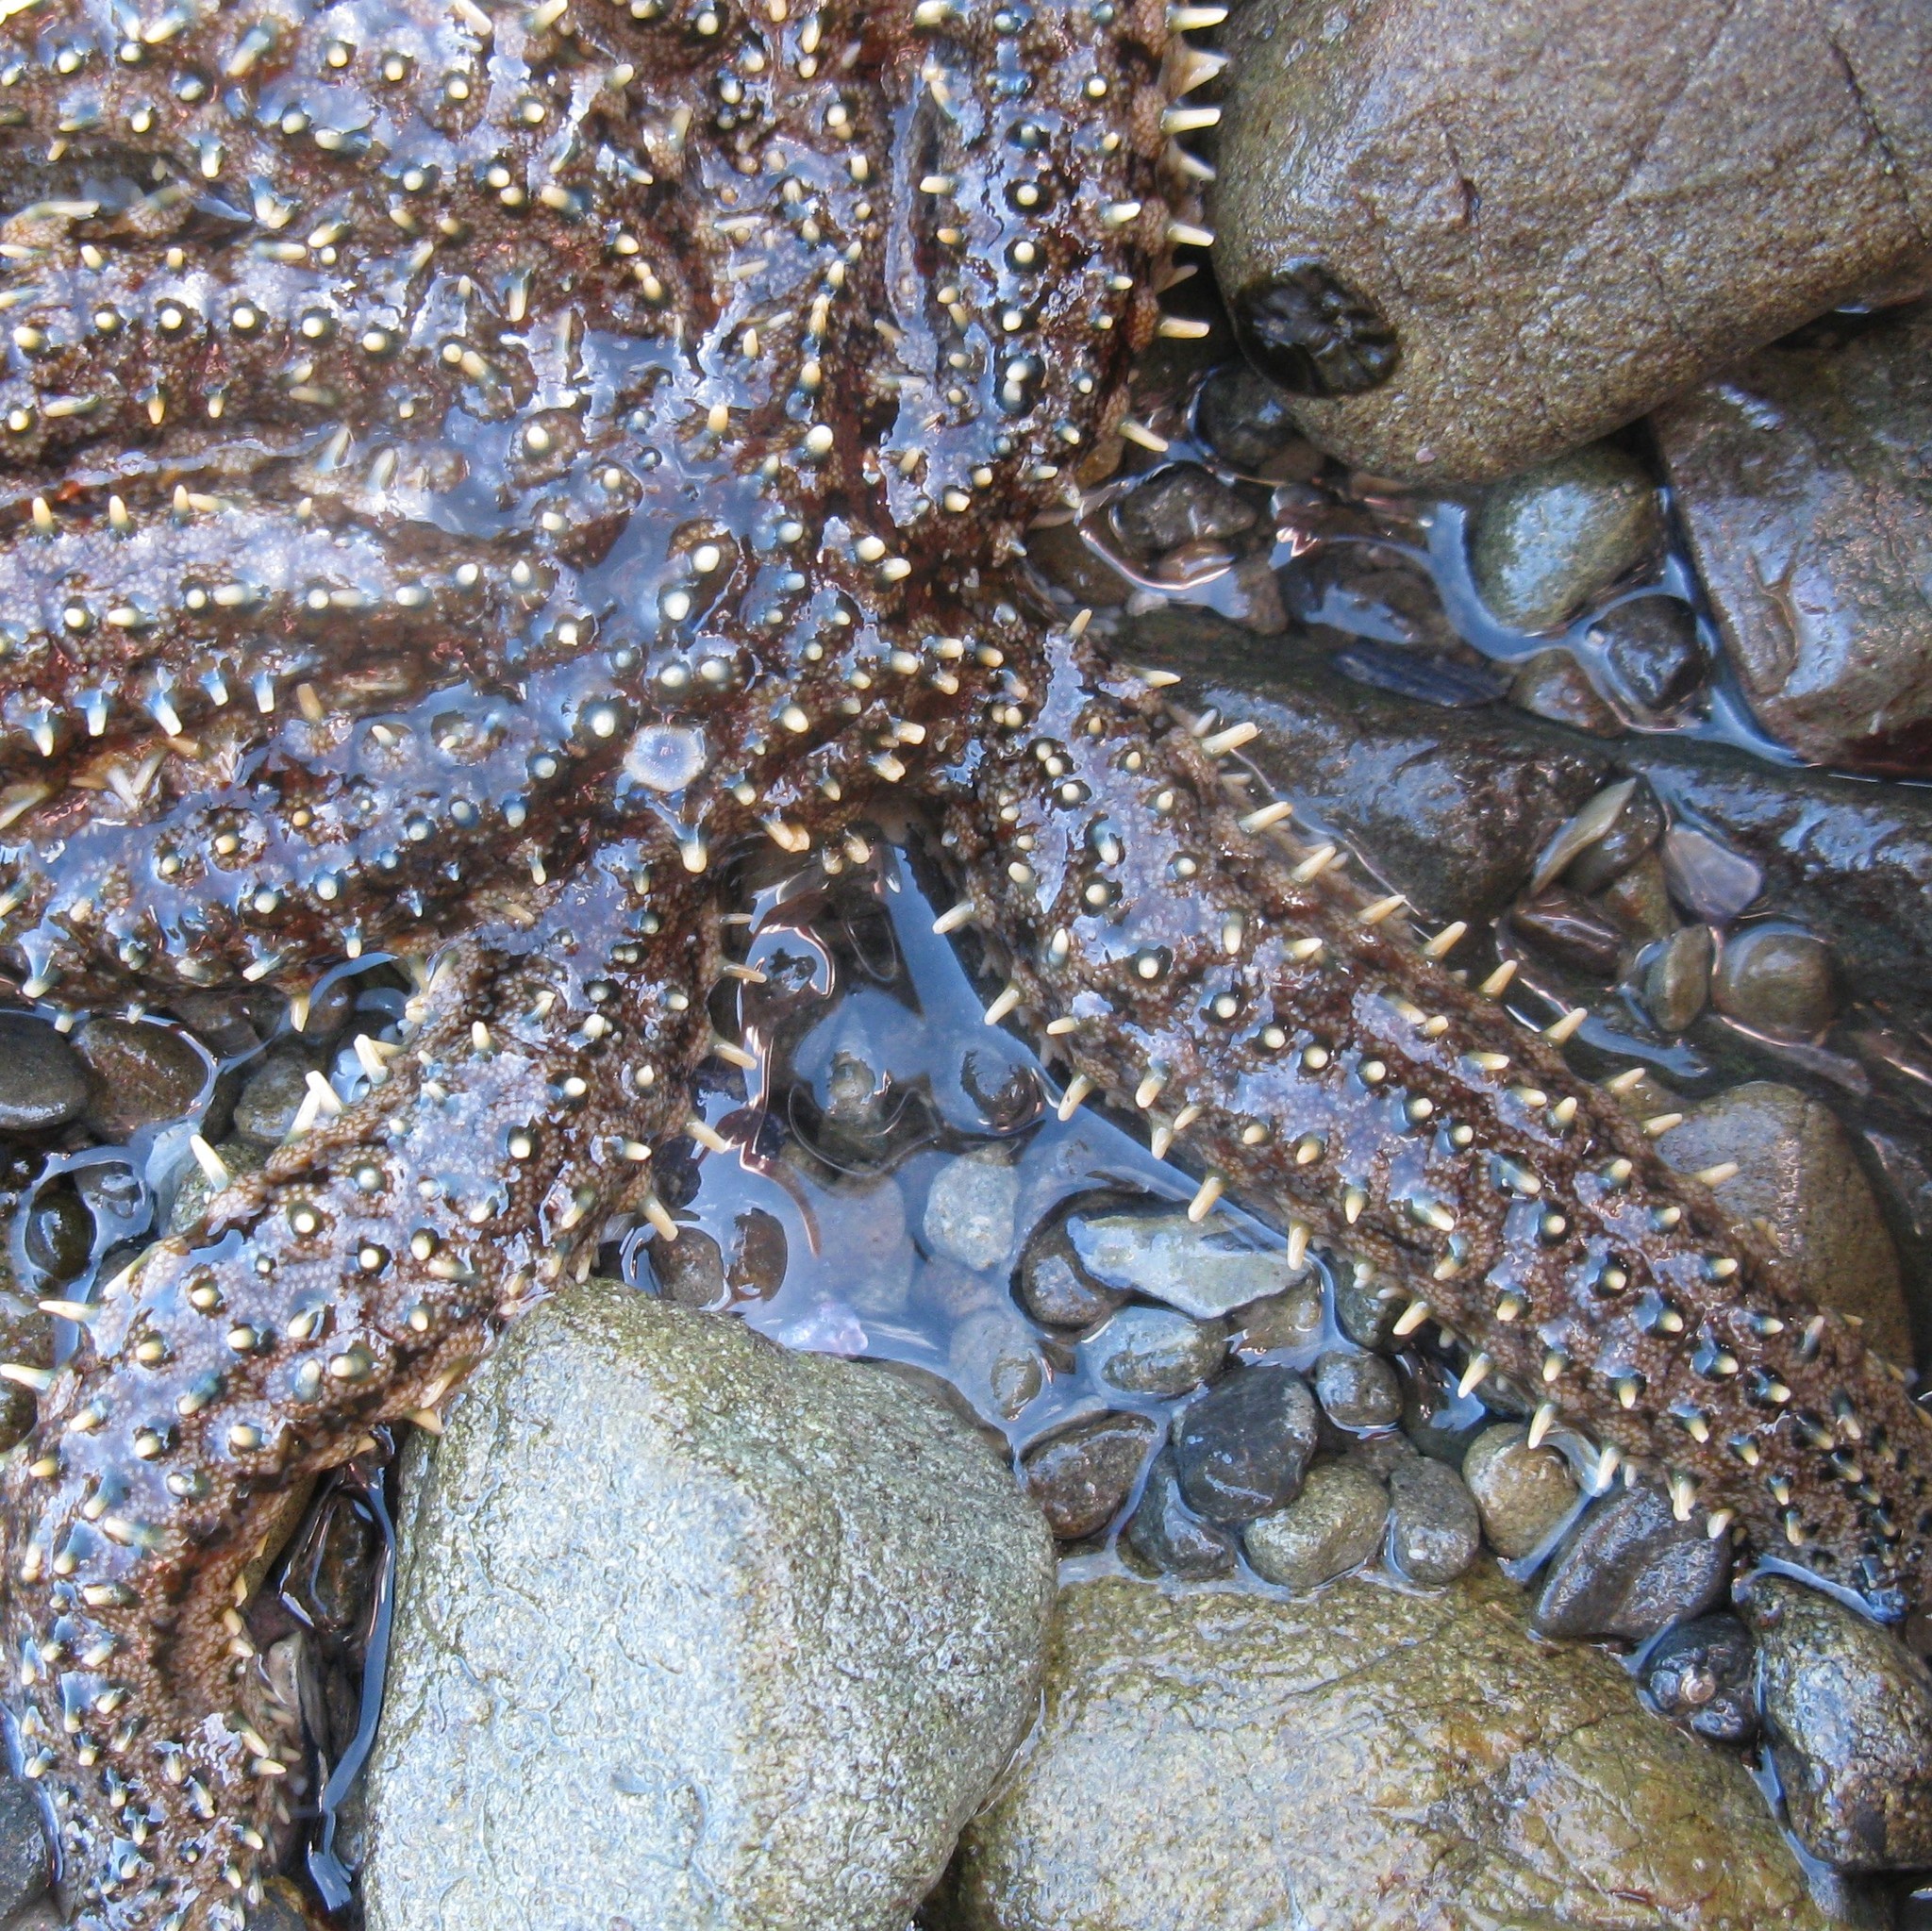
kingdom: Animalia
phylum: Echinodermata
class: Asteroidea
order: Forcipulatida
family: Asteriidae
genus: Coscinasterias
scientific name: Coscinasterias muricata
